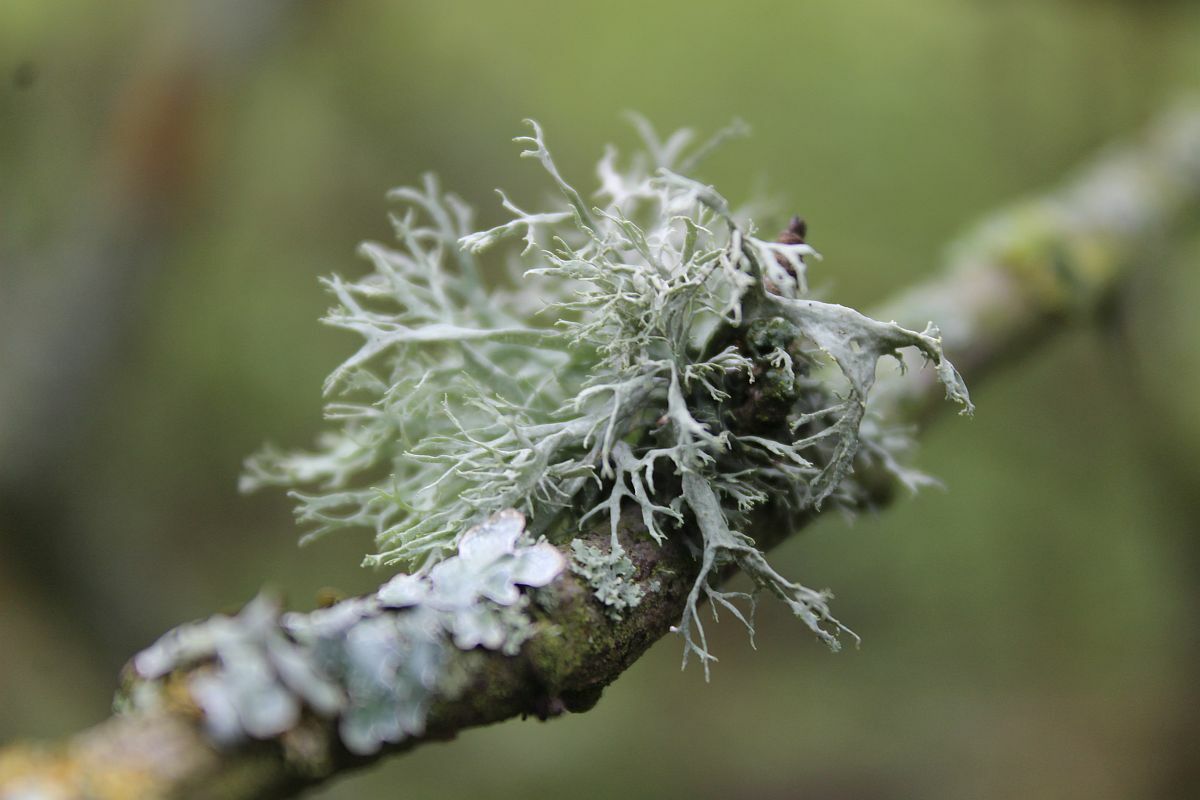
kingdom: Fungi
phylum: Ascomycota
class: Lecanoromycetes
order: Lecanorales
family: Ramalinaceae
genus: Ramalina
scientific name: Ramalina farinacea
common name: Farinose cartilage lichen
